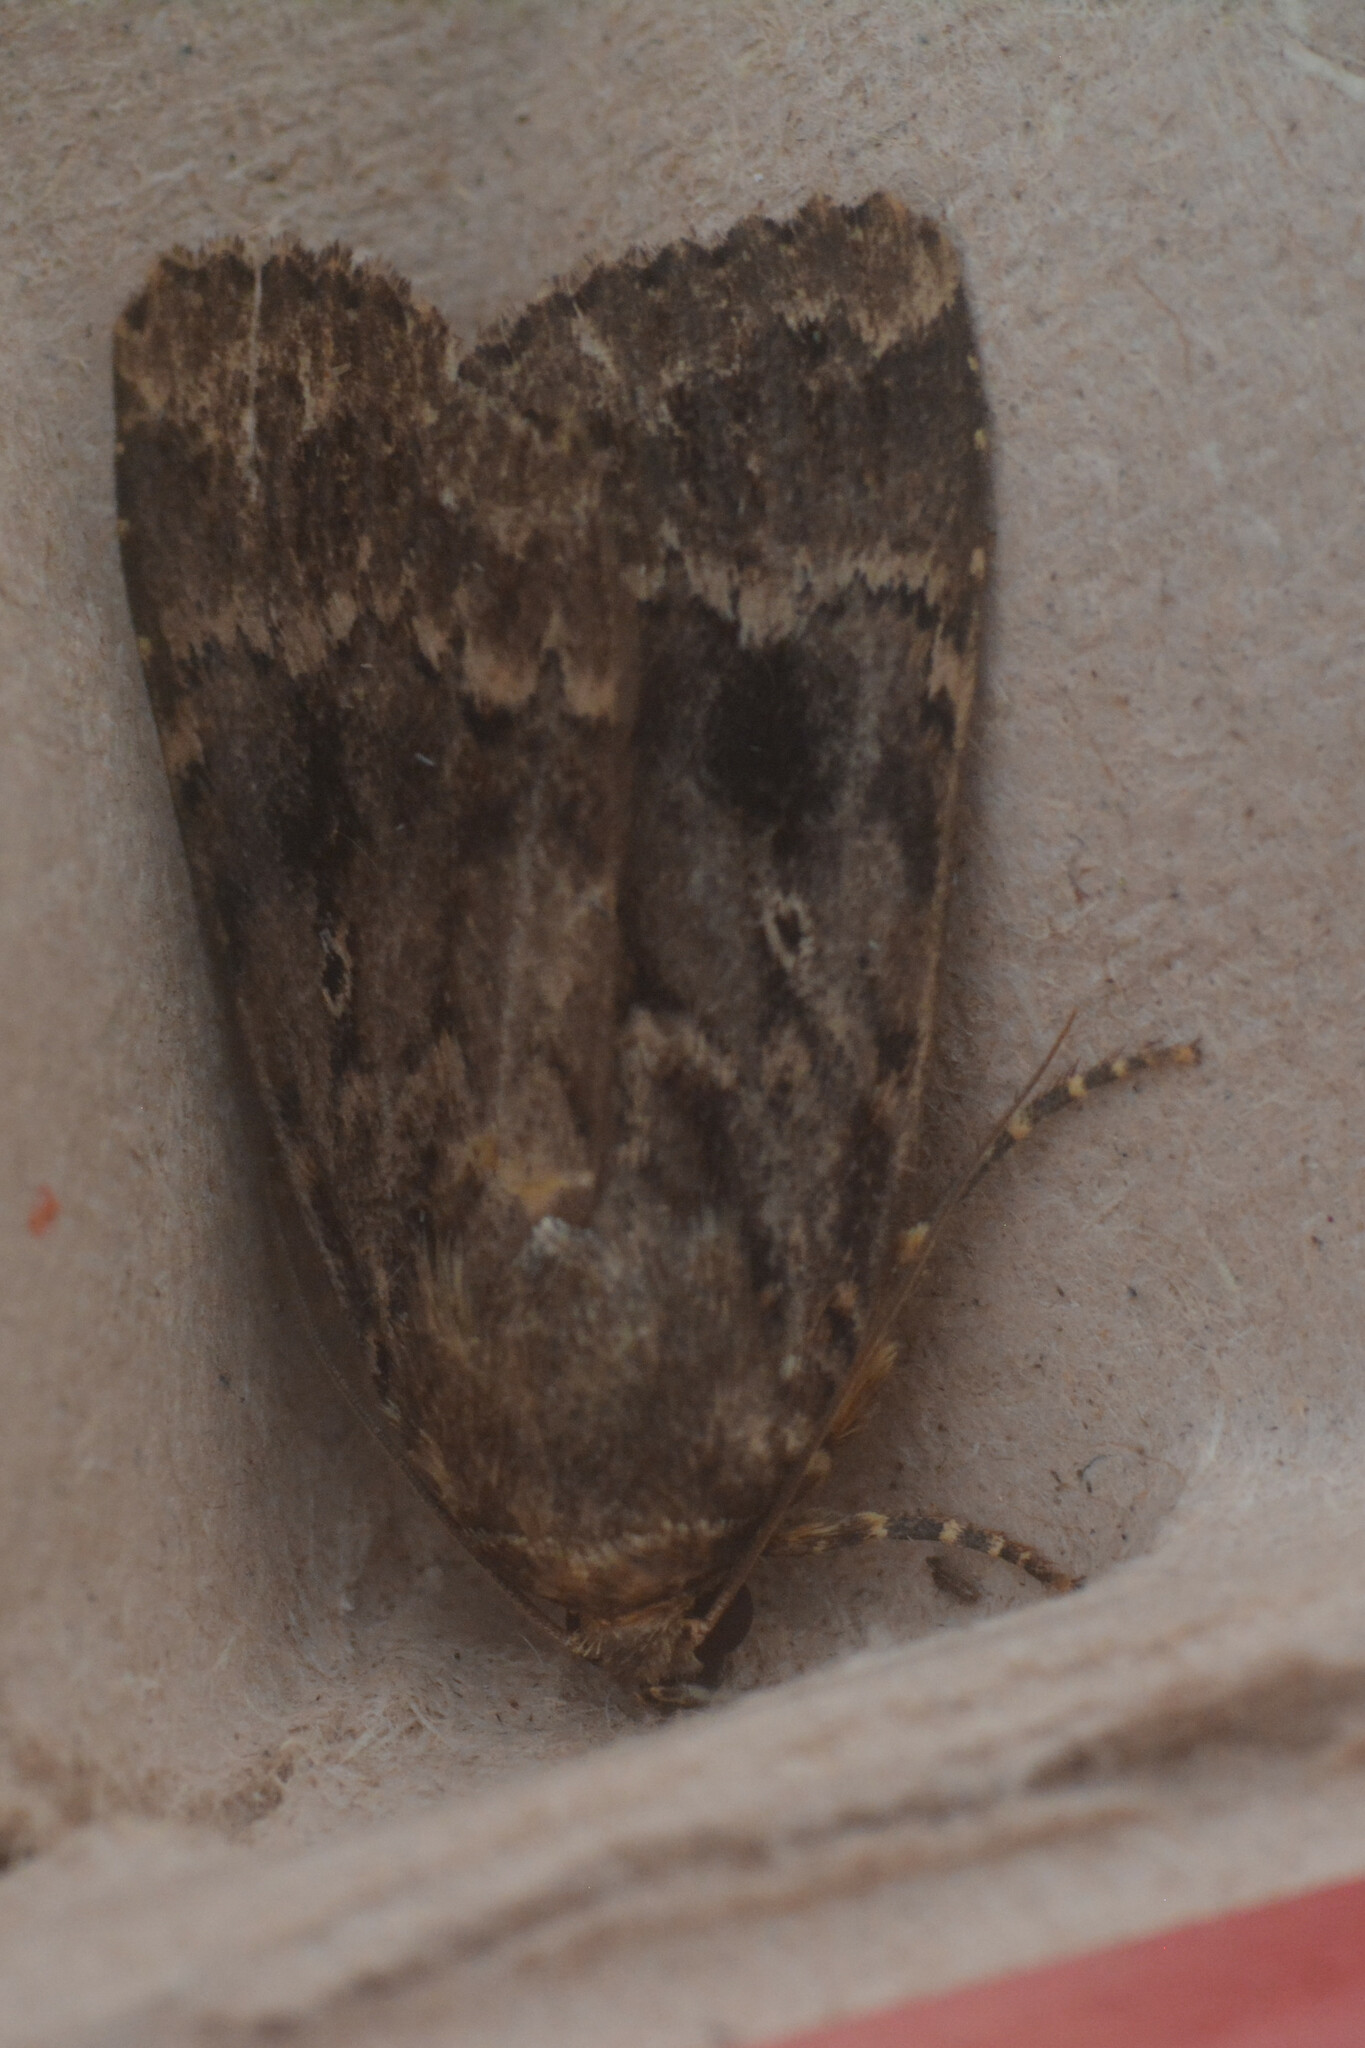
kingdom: Animalia
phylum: Arthropoda
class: Insecta
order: Lepidoptera
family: Noctuidae
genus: Amphipyra
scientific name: Amphipyra
